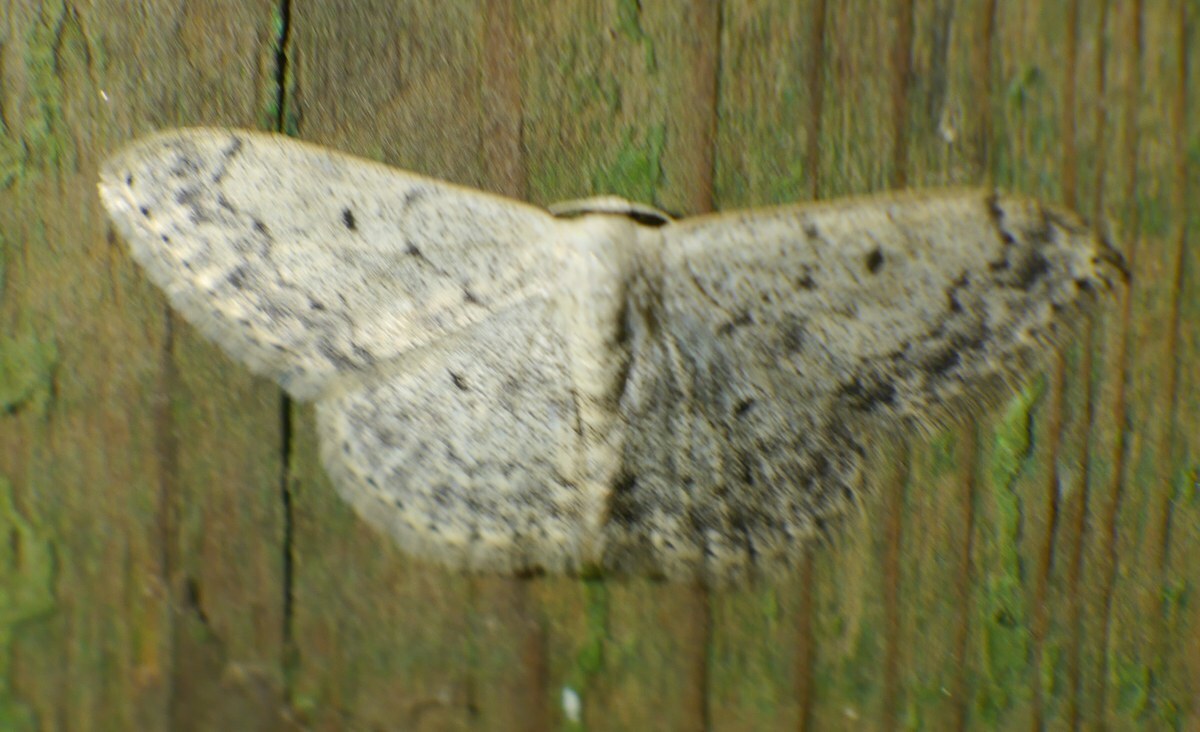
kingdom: Animalia
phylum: Arthropoda
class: Insecta
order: Lepidoptera
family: Geometridae
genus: Scopula
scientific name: Scopula marginepunctata
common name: Mullein wave
